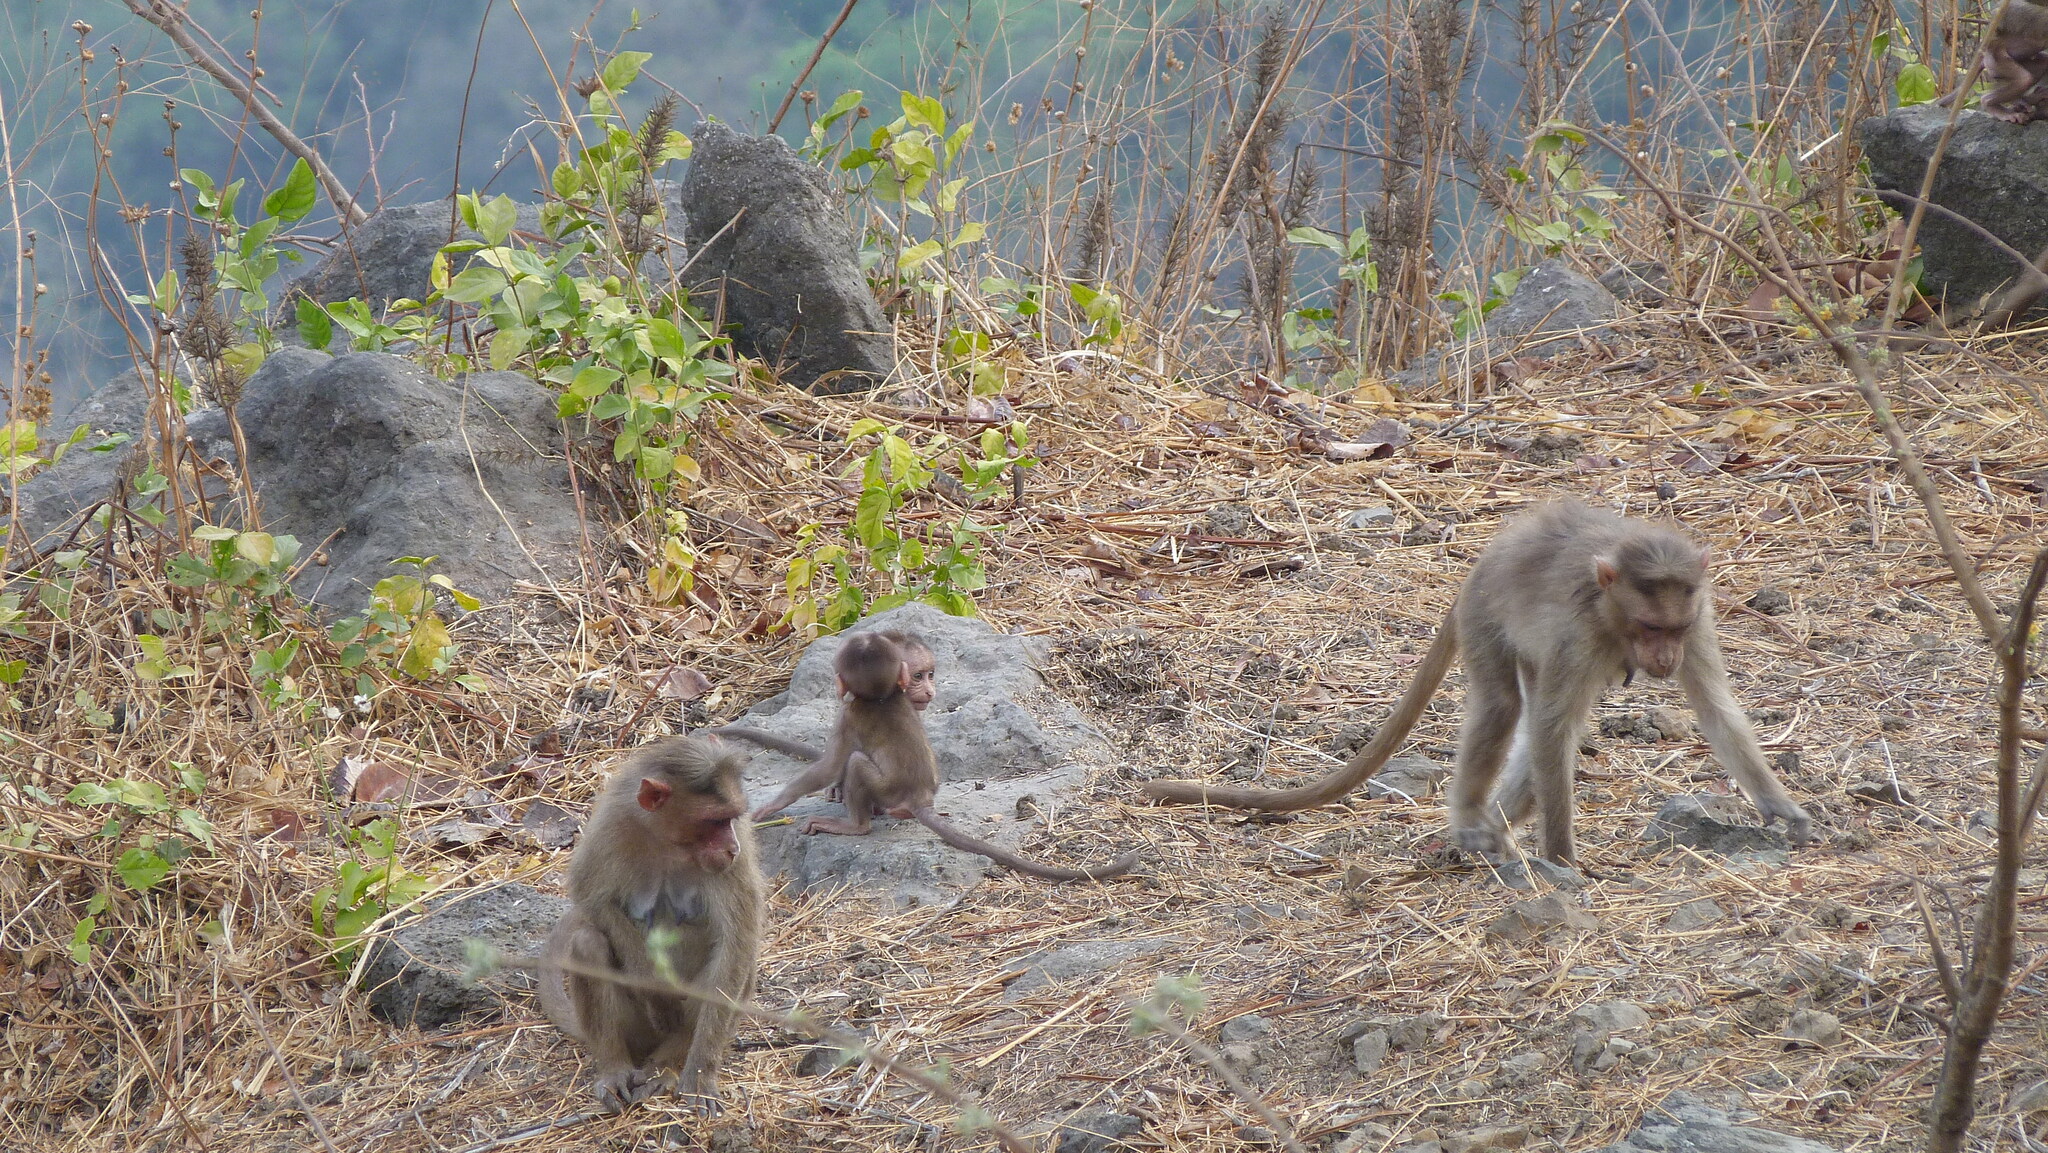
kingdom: Animalia
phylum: Chordata
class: Mammalia
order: Primates
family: Cercopithecidae
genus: Macaca
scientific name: Macaca radiata
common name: Bonnet macaque
